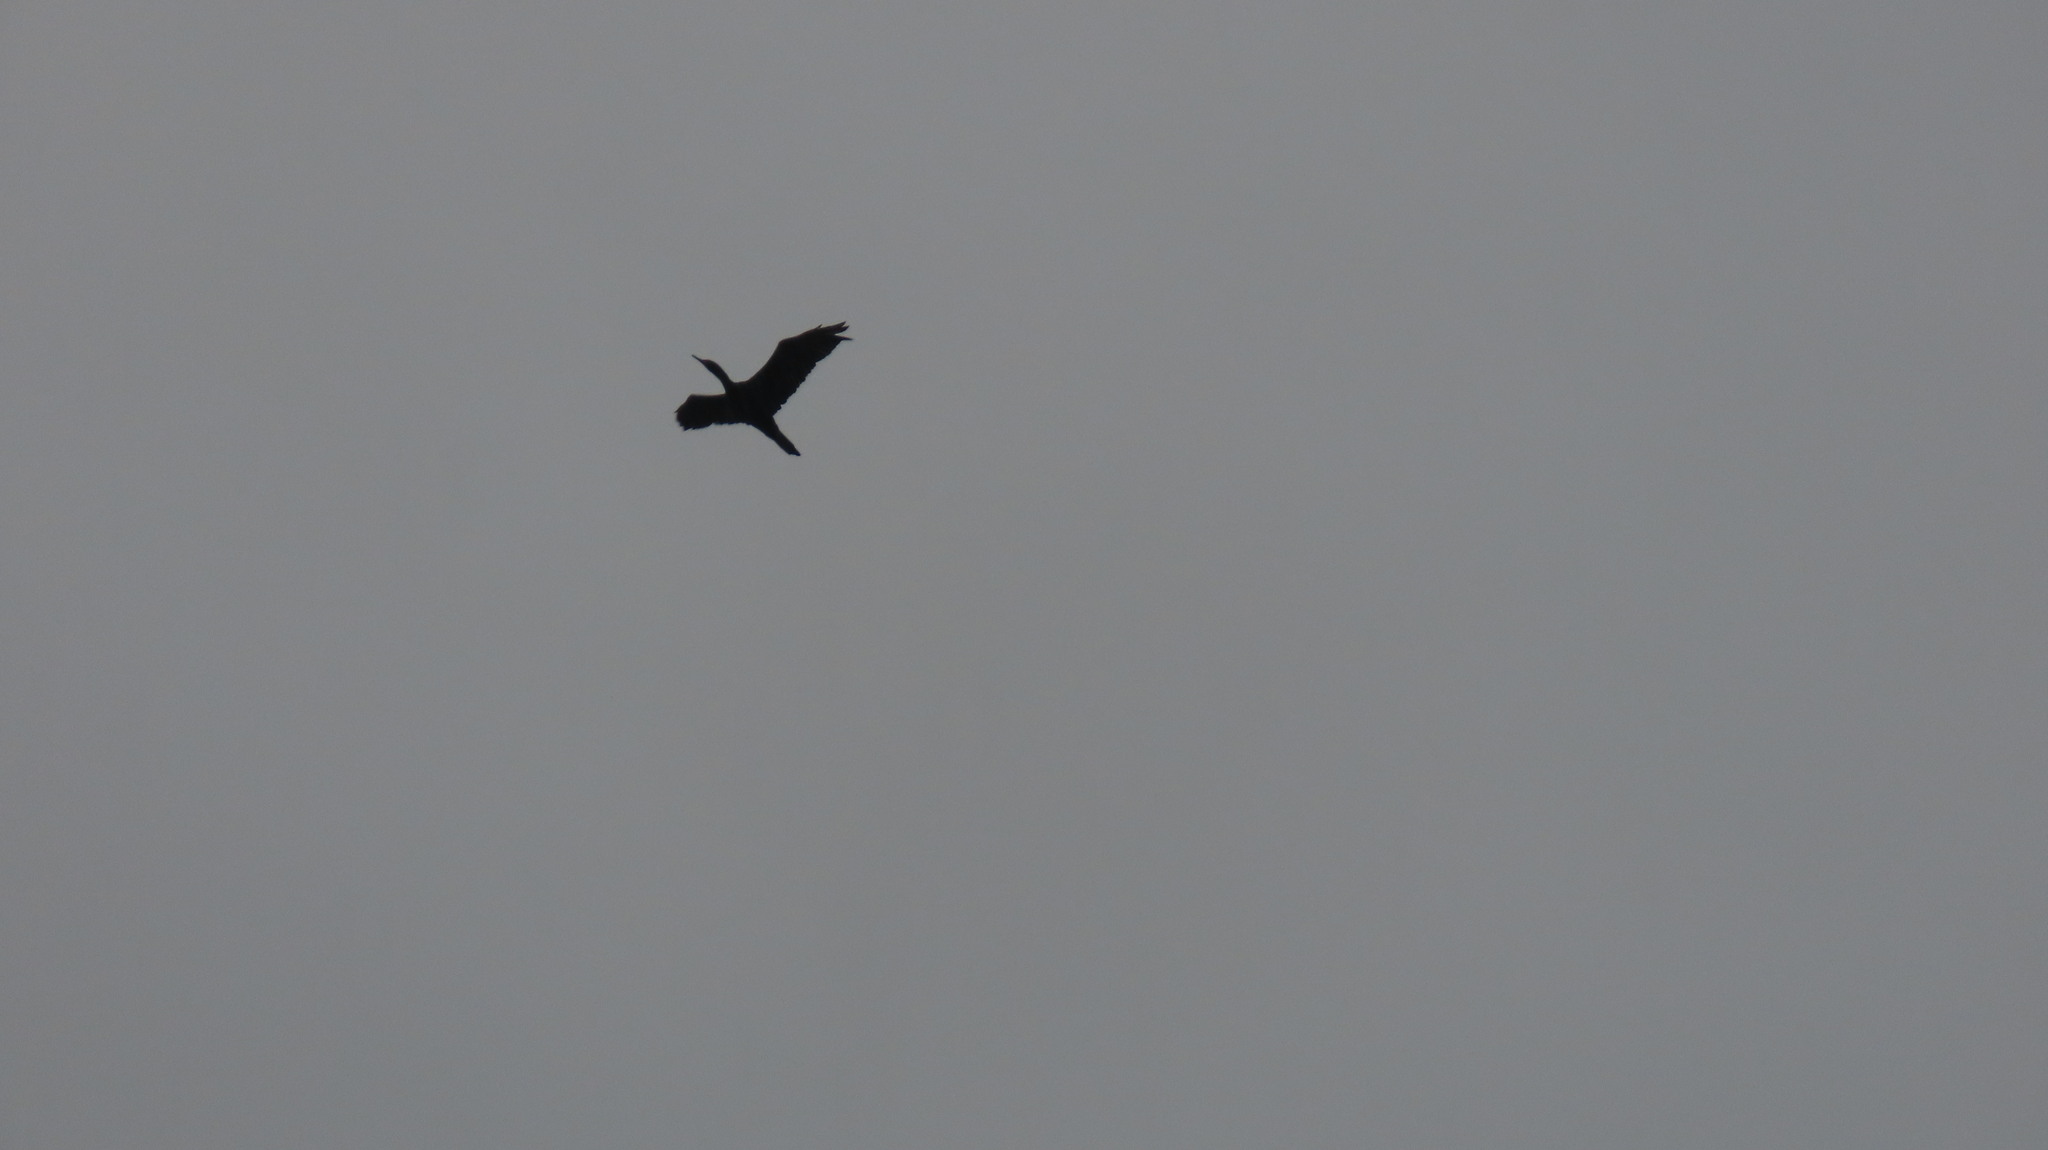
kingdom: Animalia
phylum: Chordata
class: Aves
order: Suliformes
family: Phalacrocoracidae
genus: Phalacrocorax
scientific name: Phalacrocorax fuscicollis
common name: Indian cormorant
